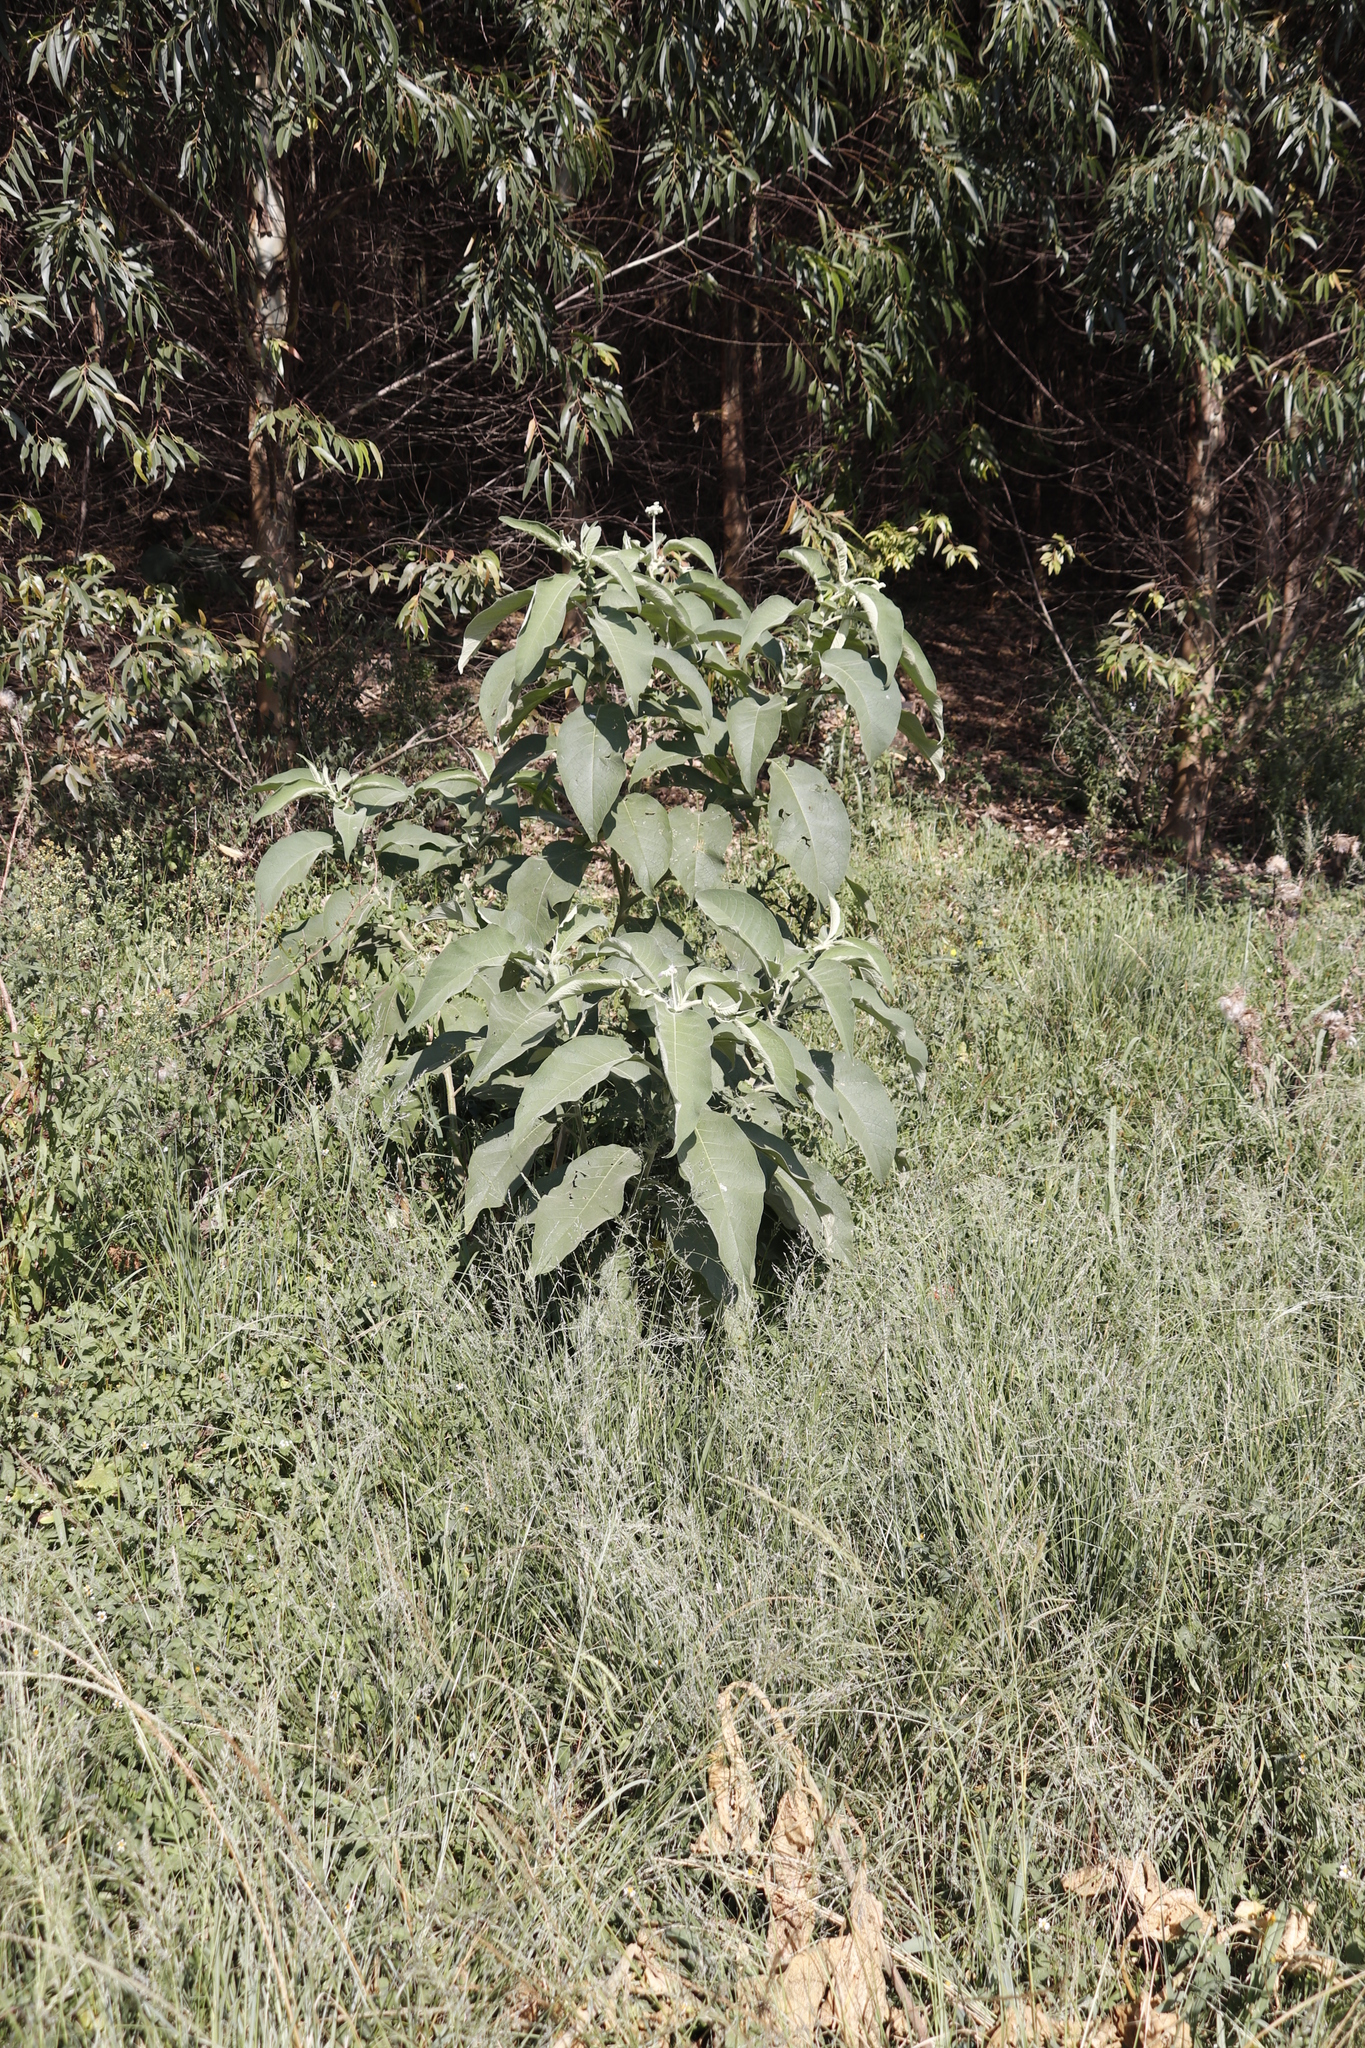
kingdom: Plantae
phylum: Tracheophyta
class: Magnoliopsida
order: Solanales
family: Solanaceae
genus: Solanum
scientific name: Solanum mauritianum
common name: Earleaf nightshade
